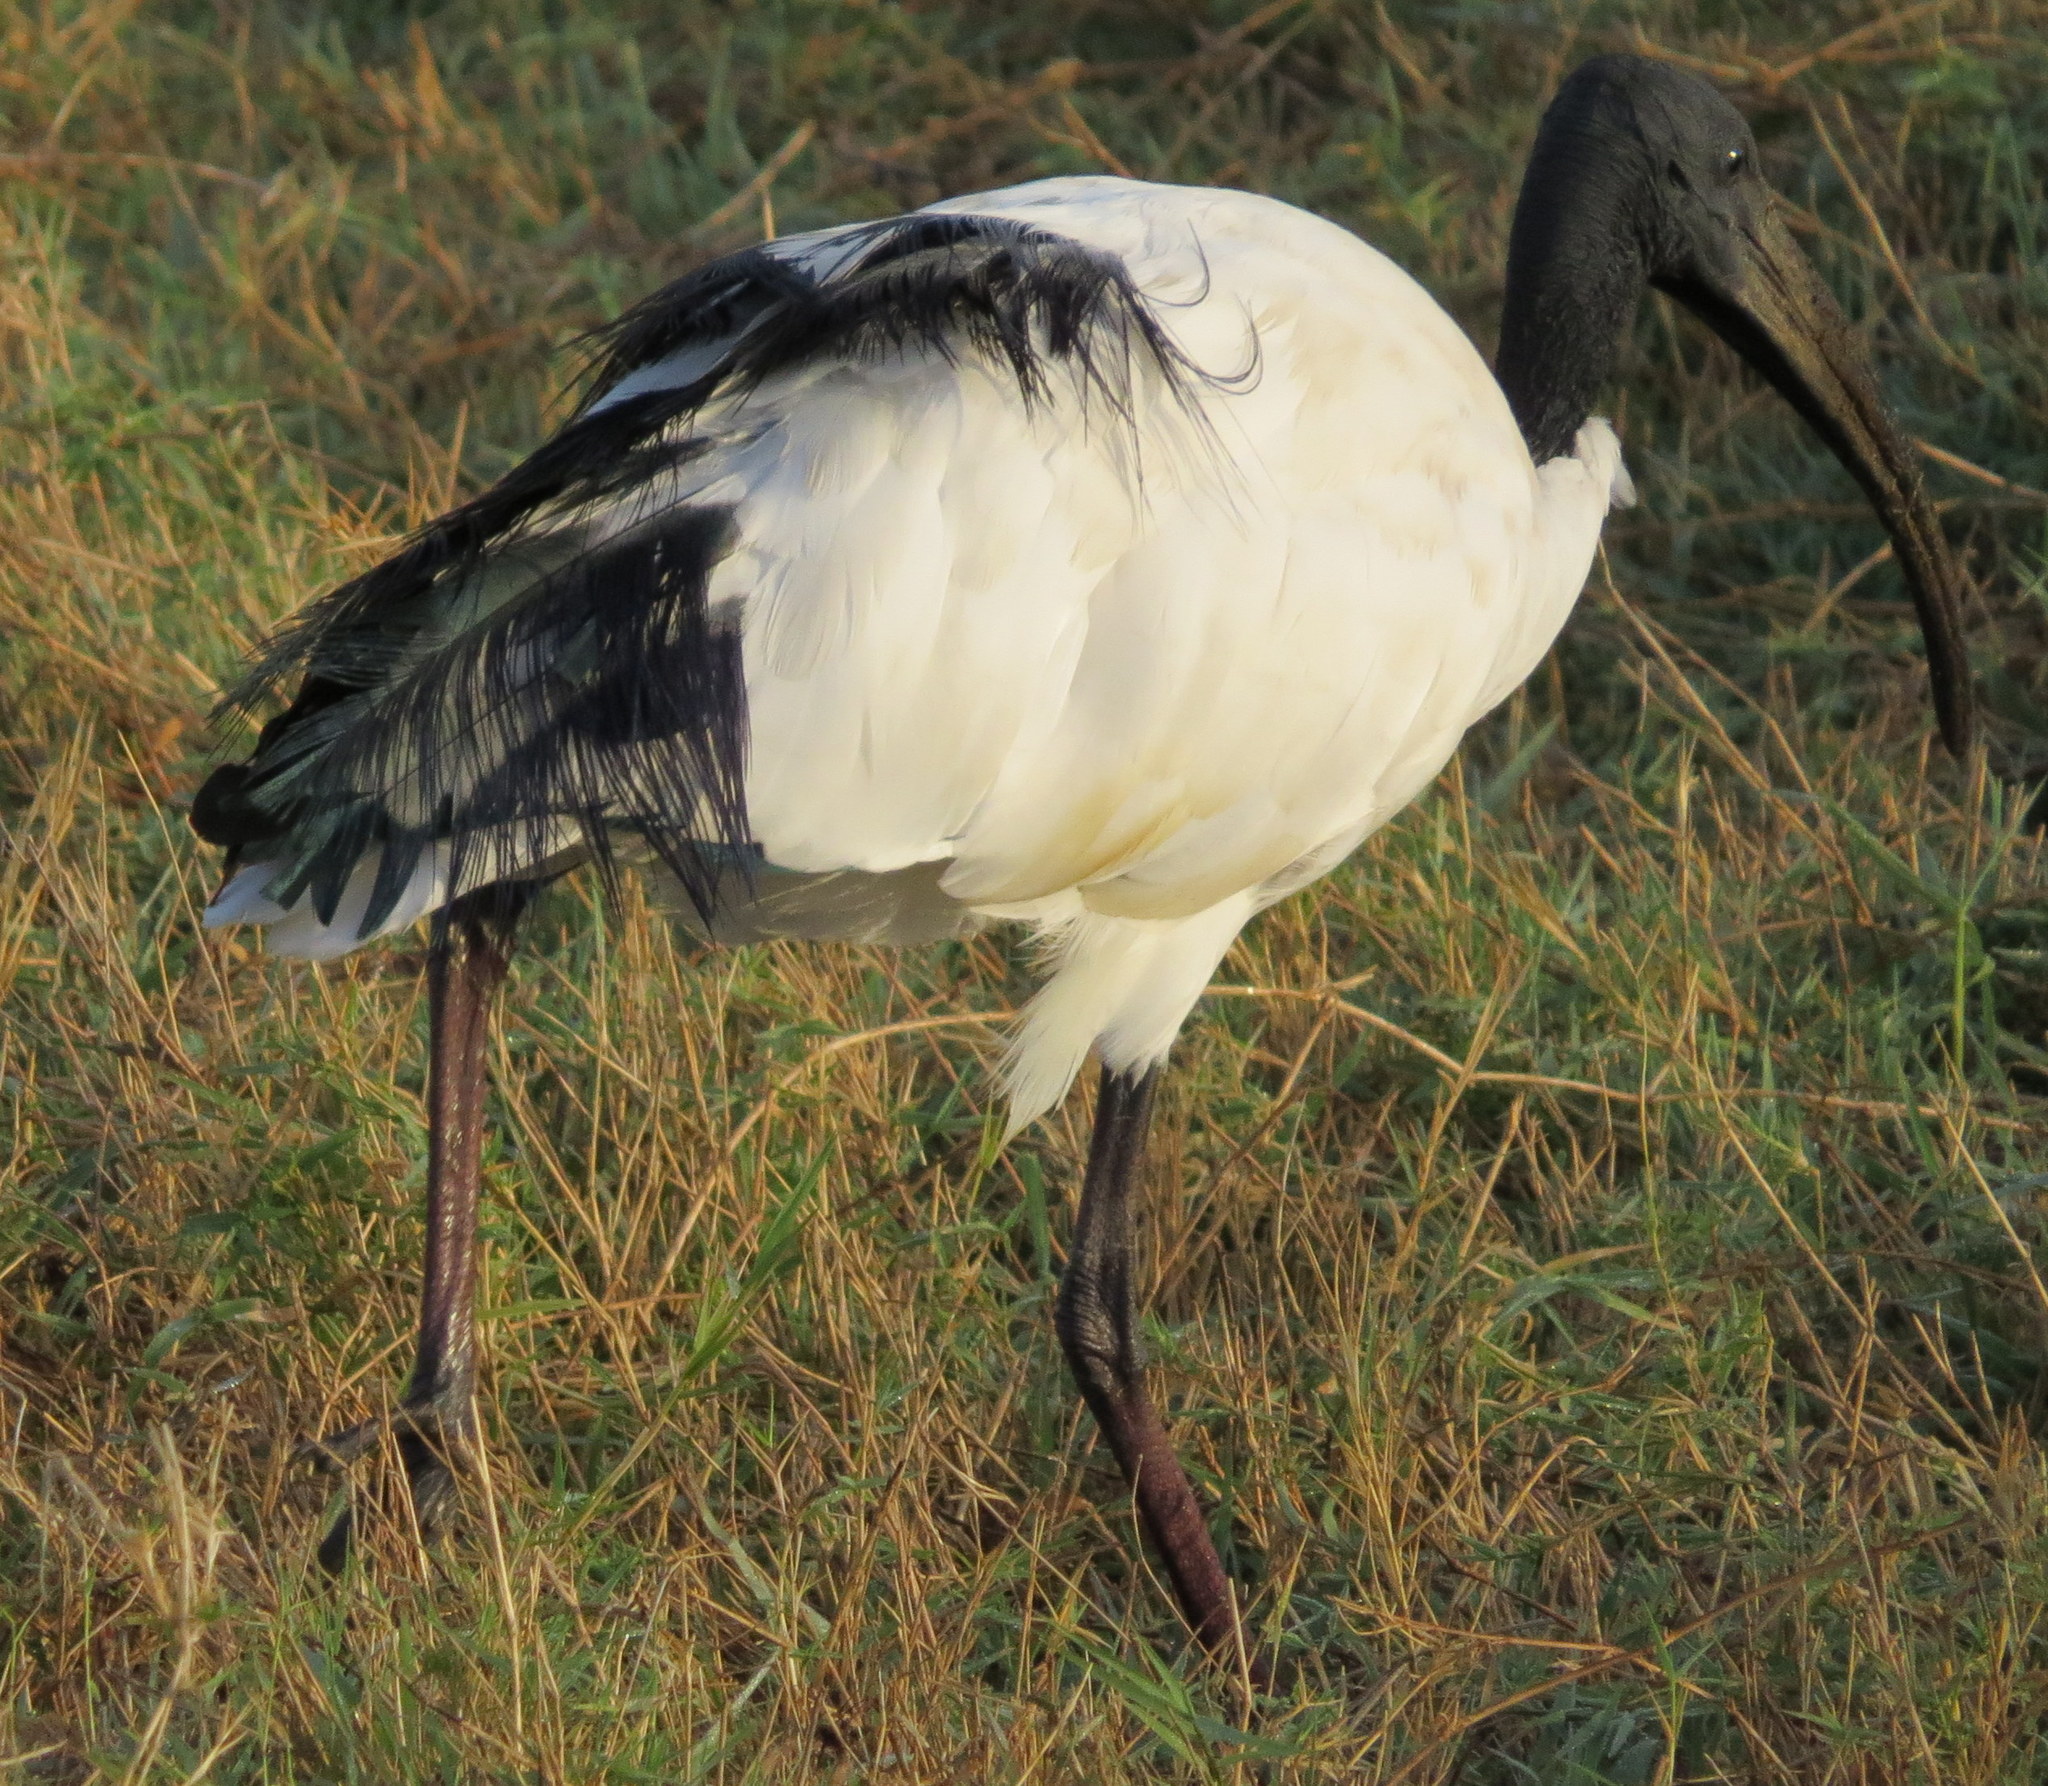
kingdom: Animalia
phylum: Chordata
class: Aves
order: Pelecaniformes
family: Threskiornithidae
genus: Threskiornis
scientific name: Threskiornis aethiopicus
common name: Sacred ibis
